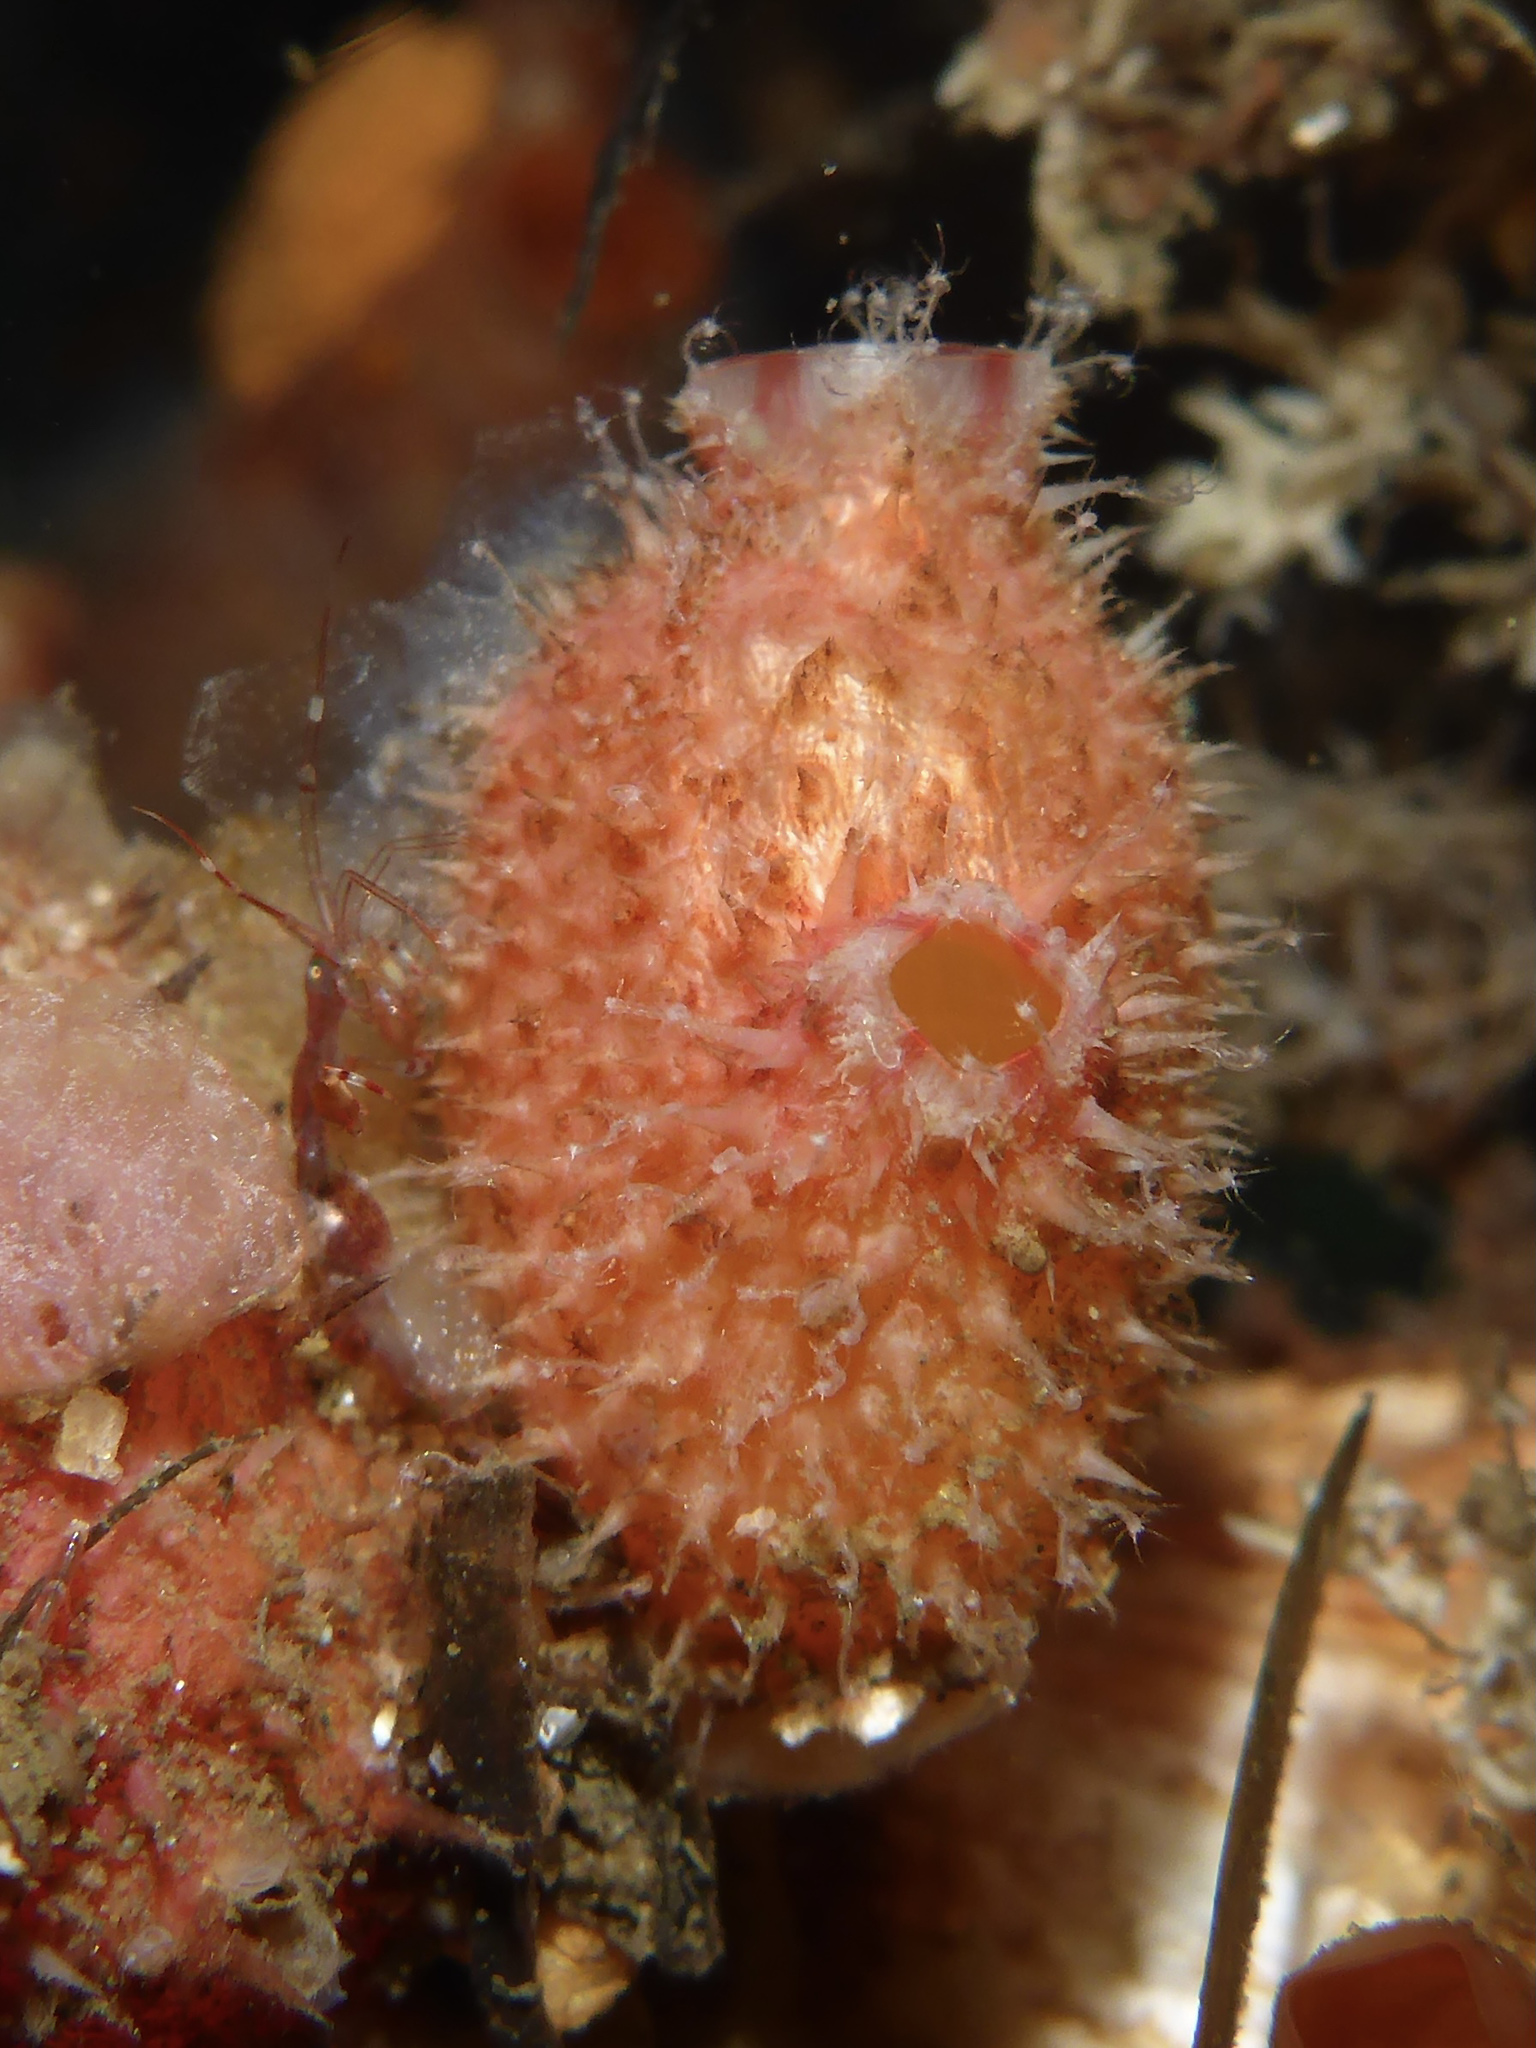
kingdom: Animalia
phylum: Chordata
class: Ascidiacea
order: Stolidobranchia
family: Pyuridae
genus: Boltenia
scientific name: Boltenia villosa
